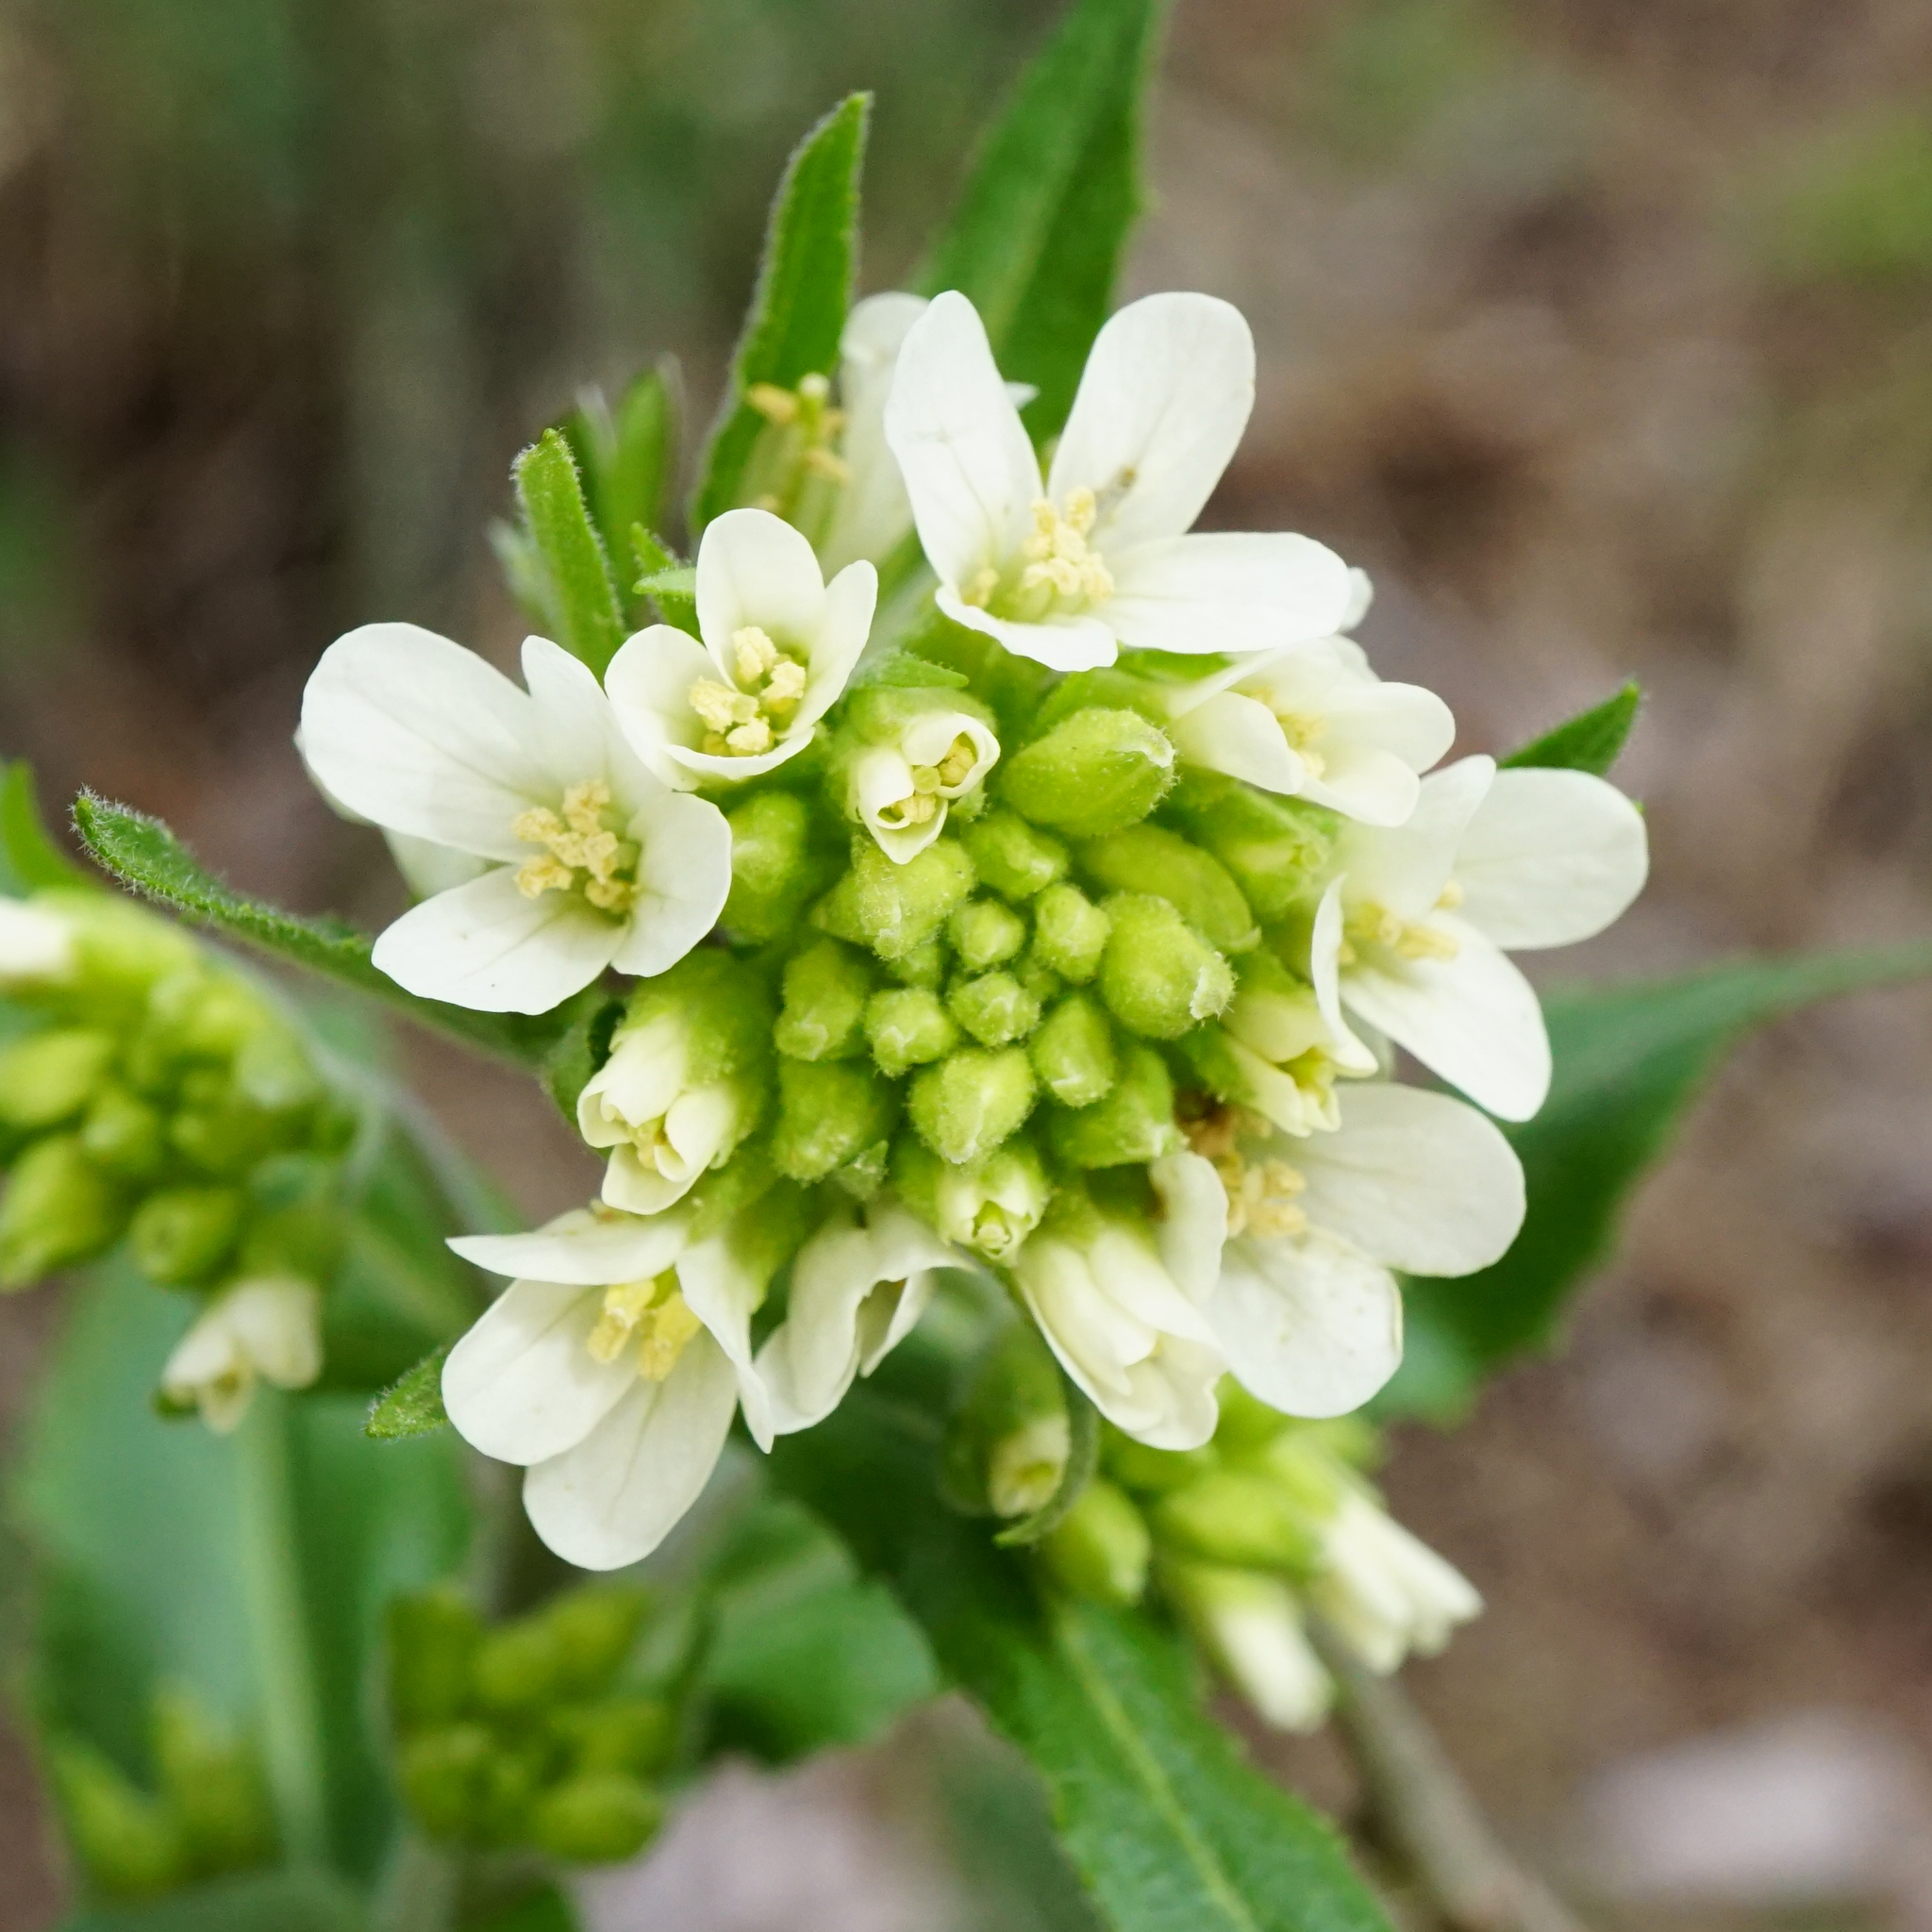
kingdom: Plantae
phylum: Tracheophyta
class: Magnoliopsida
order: Brassicales
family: Brassicaceae
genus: Pseudoturritis
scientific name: Pseudoturritis turrita
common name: Tower cress
